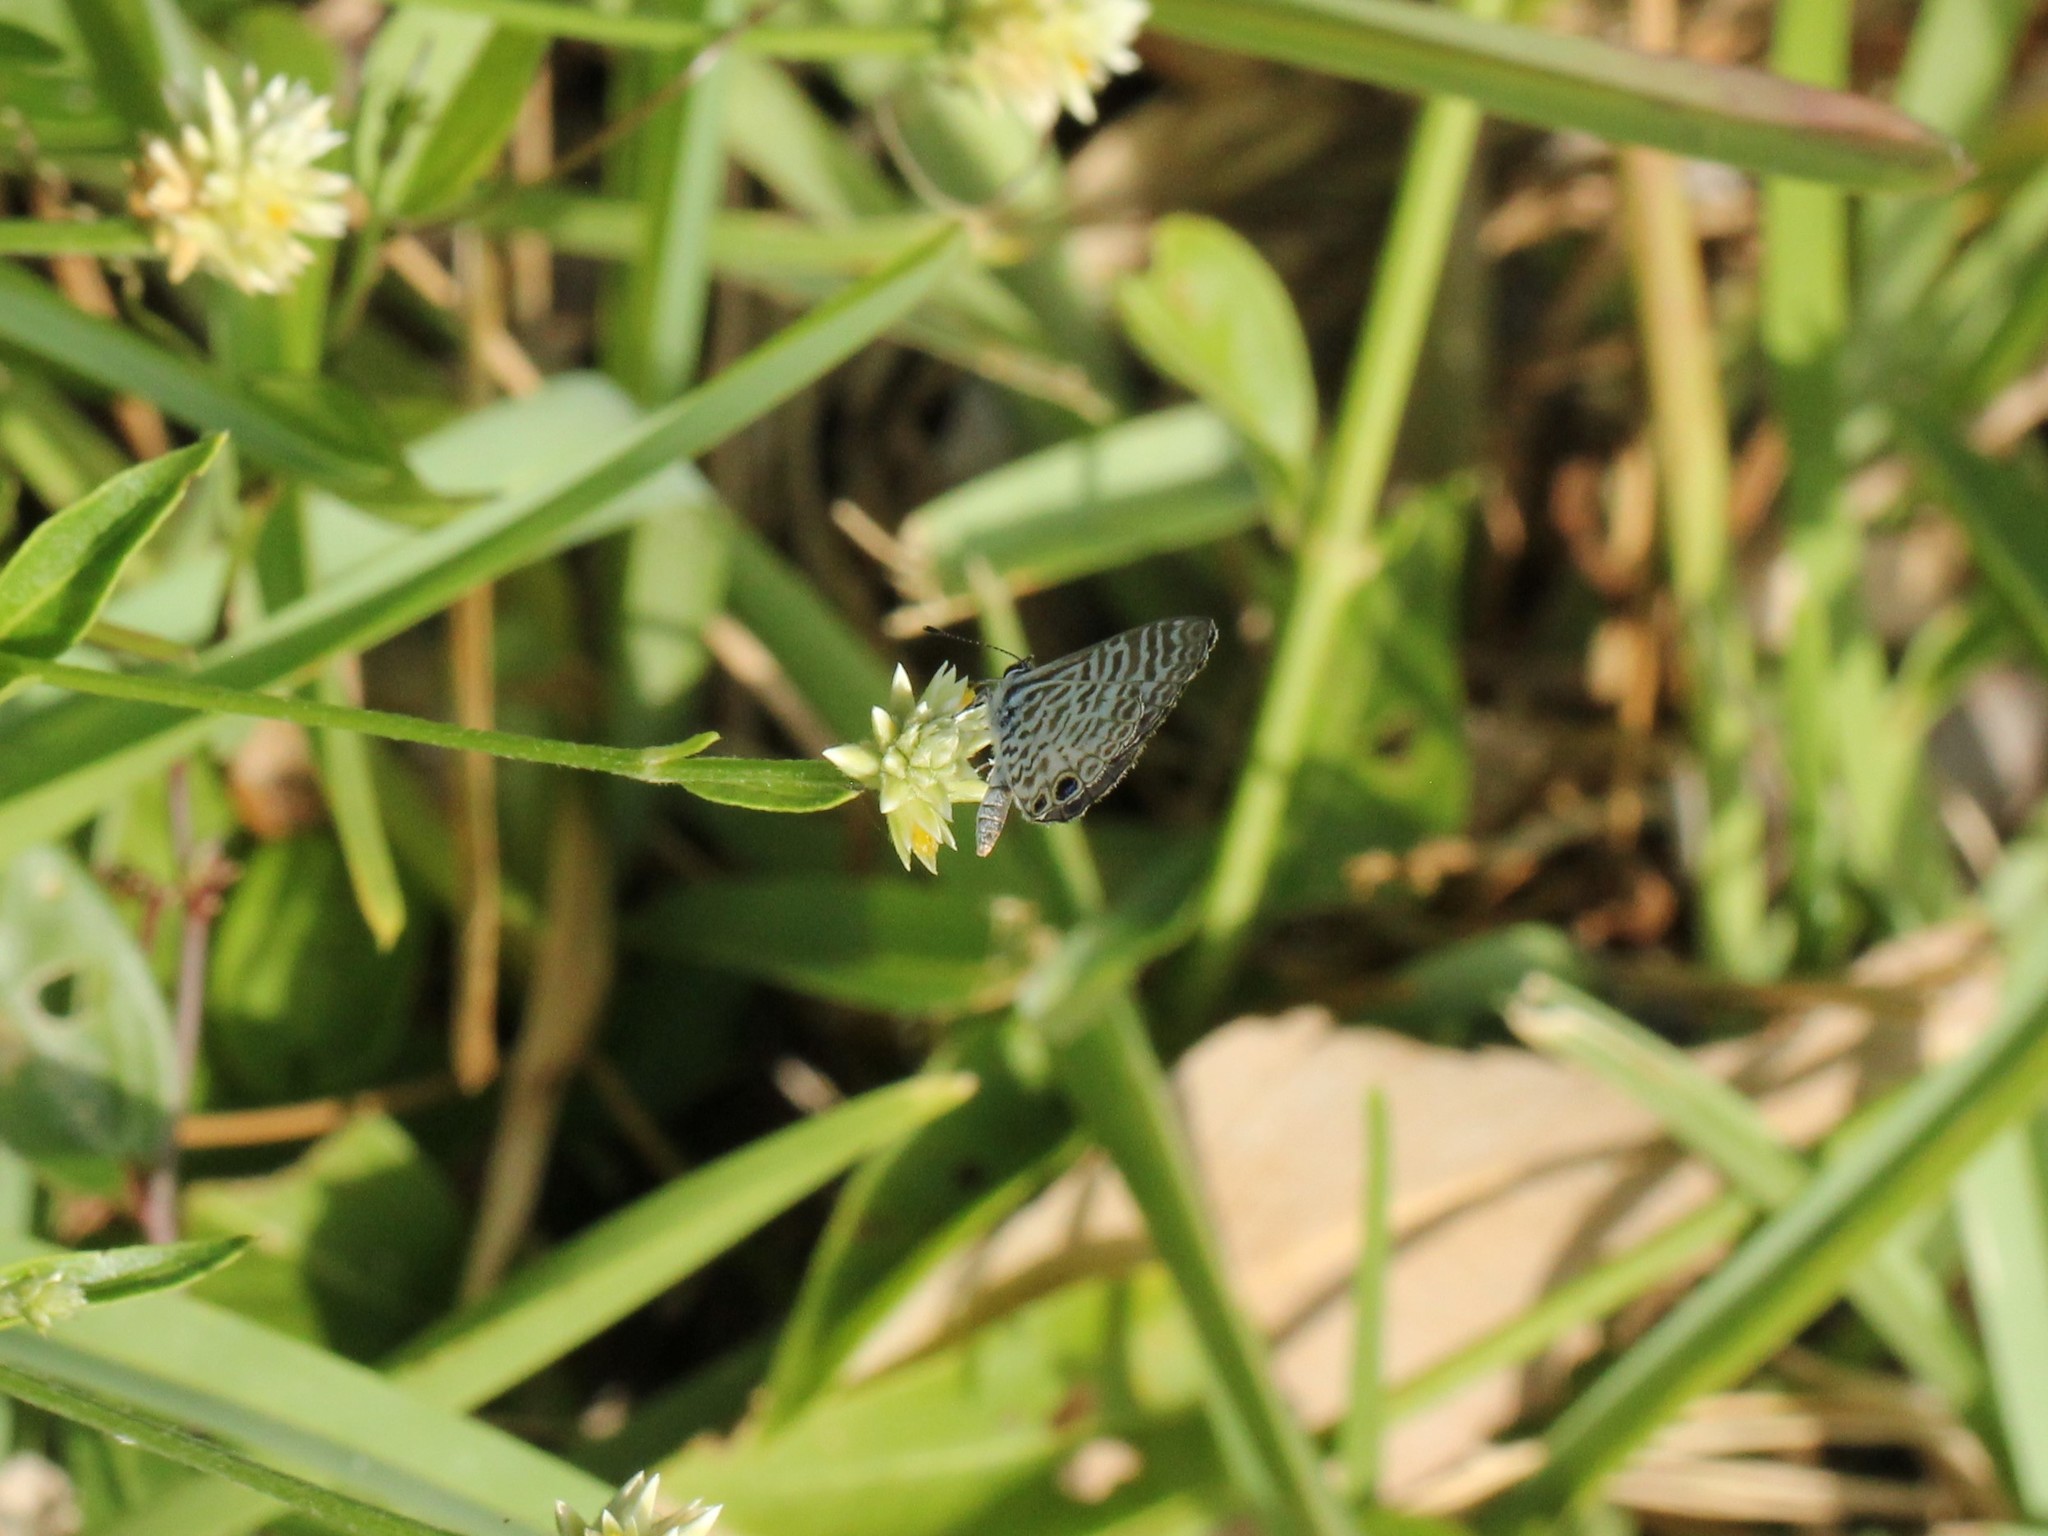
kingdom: Animalia
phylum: Arthropoda
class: Insecta
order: Lepidoptera
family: Lycaenidae
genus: Leptotes
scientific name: Leptotes cassius
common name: Cassius blue
